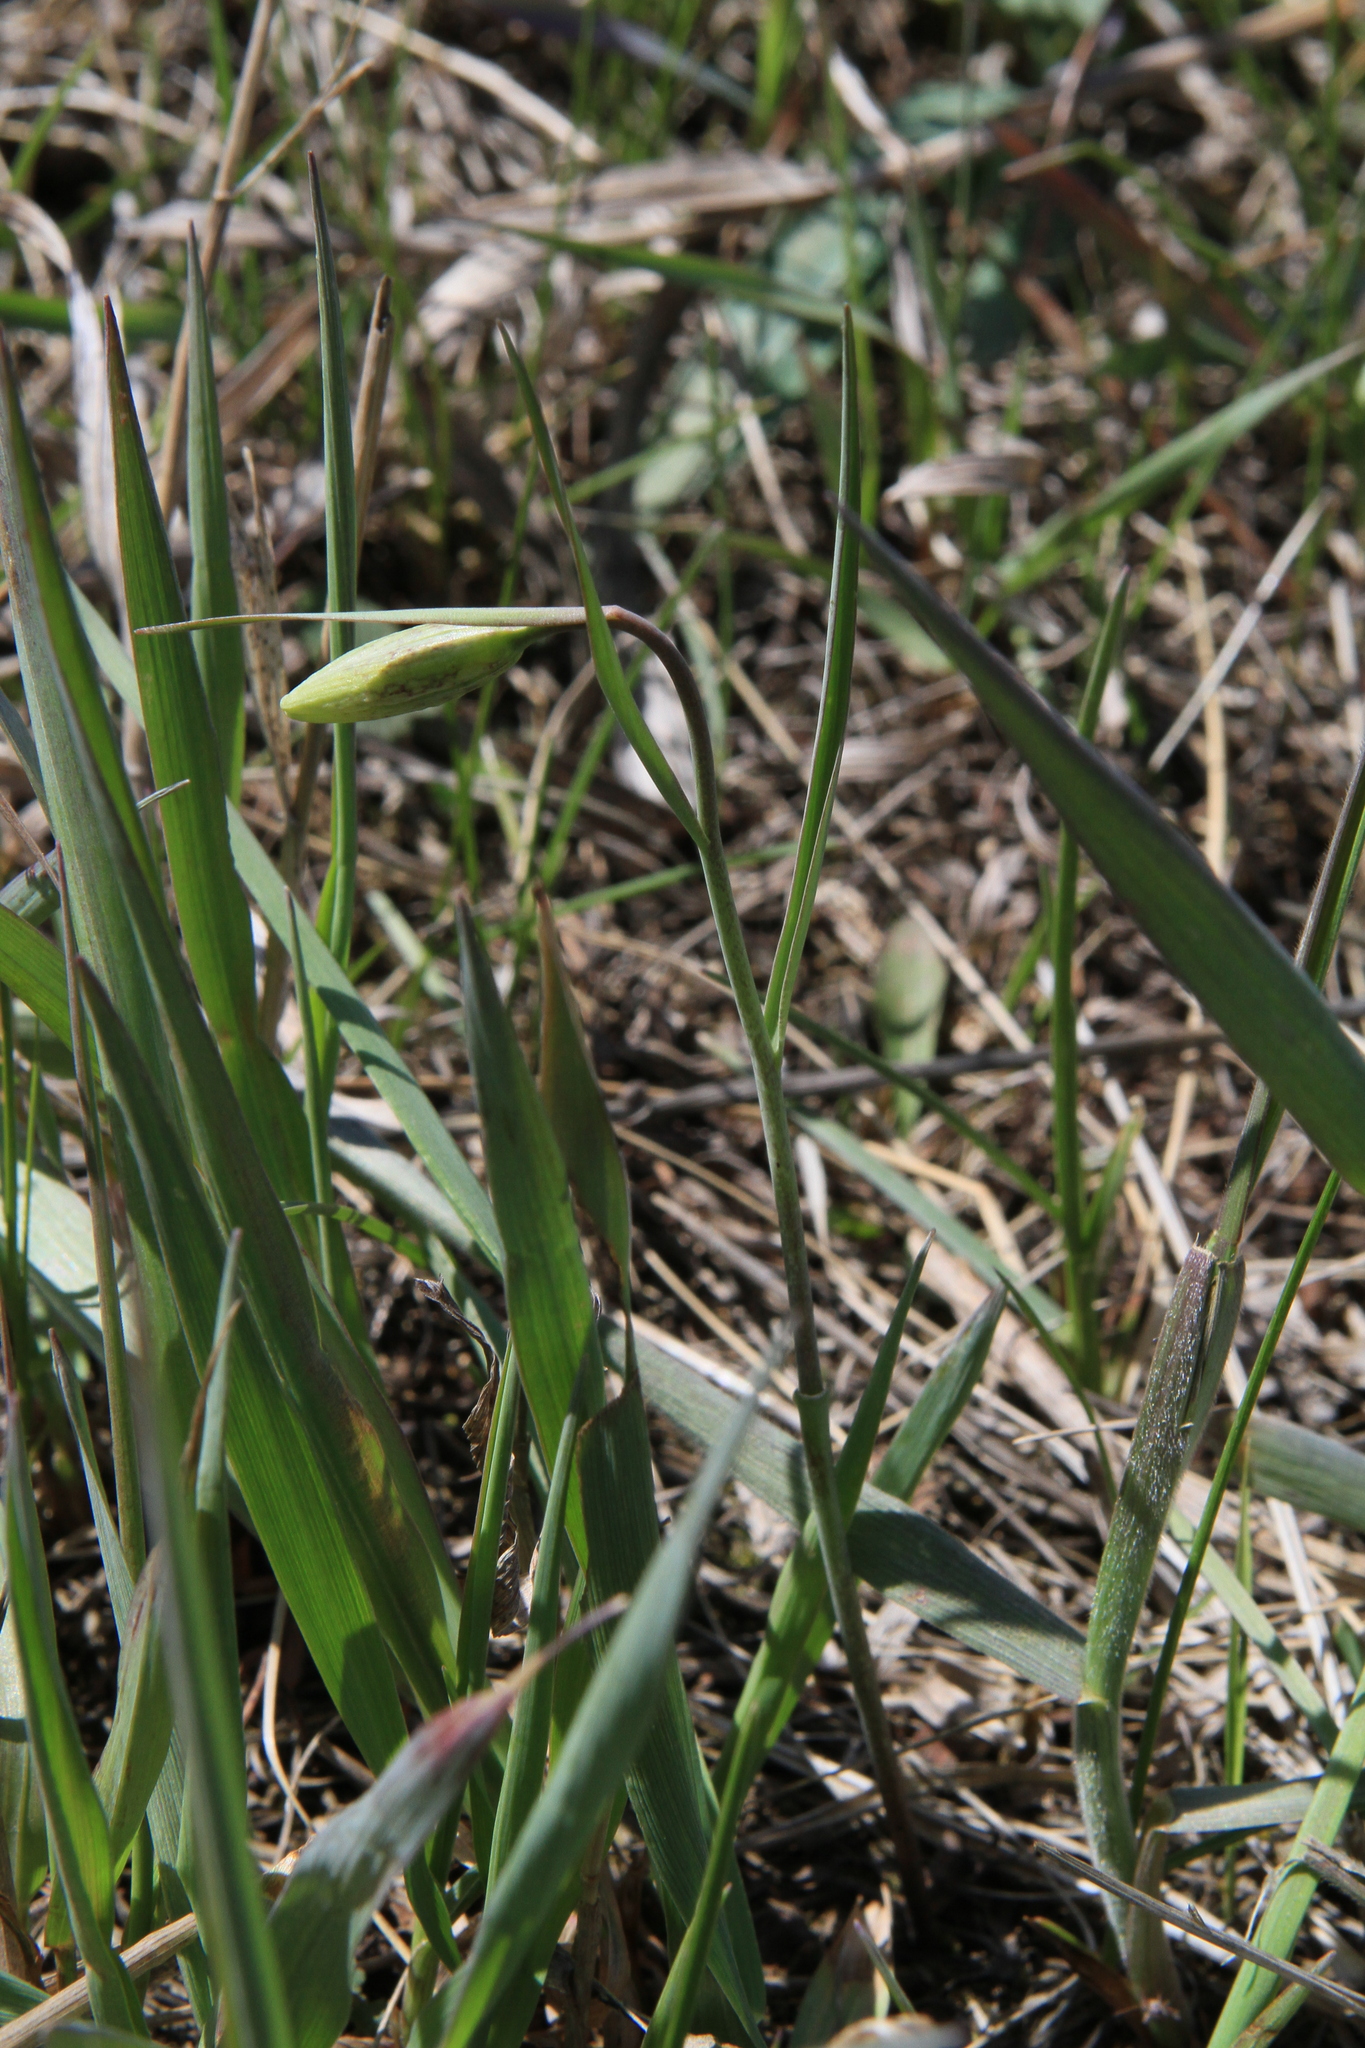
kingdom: Plantae
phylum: Tracheophyta
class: Liliopsida
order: Liliales
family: Liliaceae
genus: Fritillaria
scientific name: Fritillaria meleagroides
